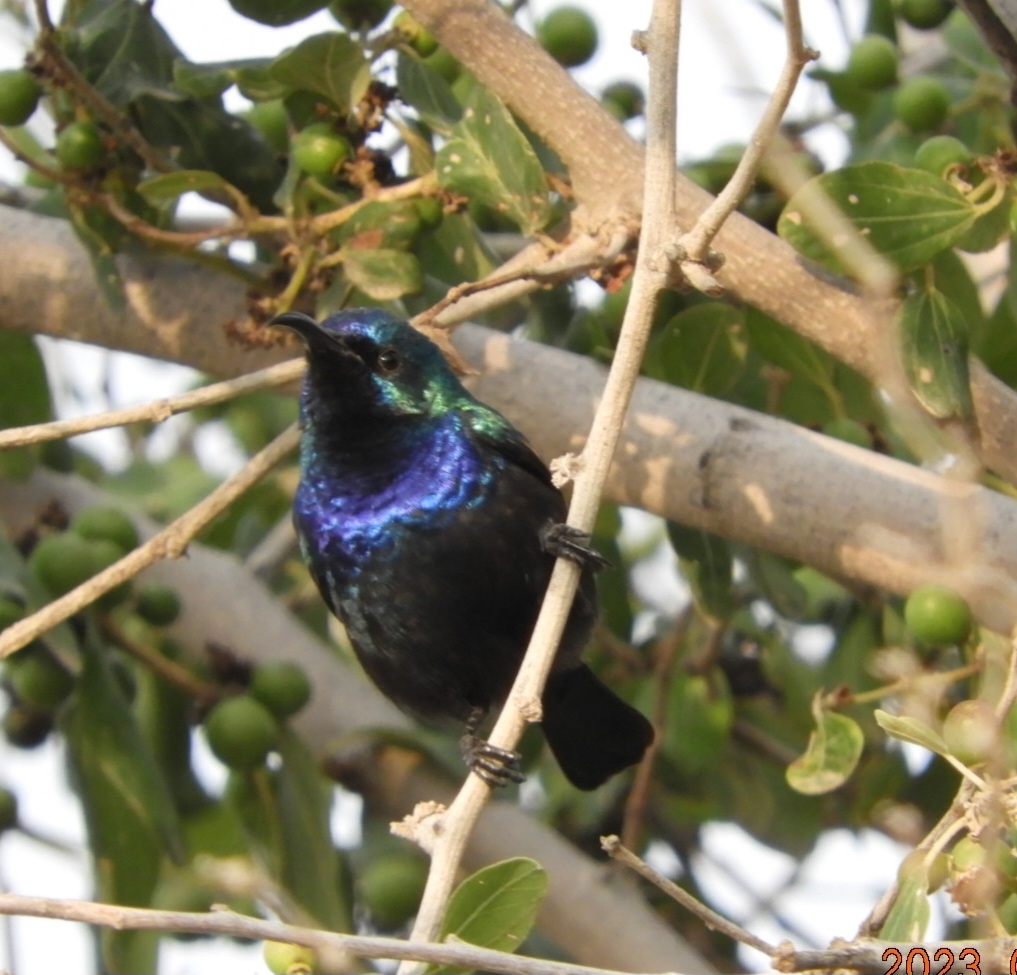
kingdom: Animalia
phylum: Chordata
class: Aves
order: Passeriformes
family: Nectariniidae
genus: Cinnyris
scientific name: Cinnyris osea
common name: Palestine sunbird
